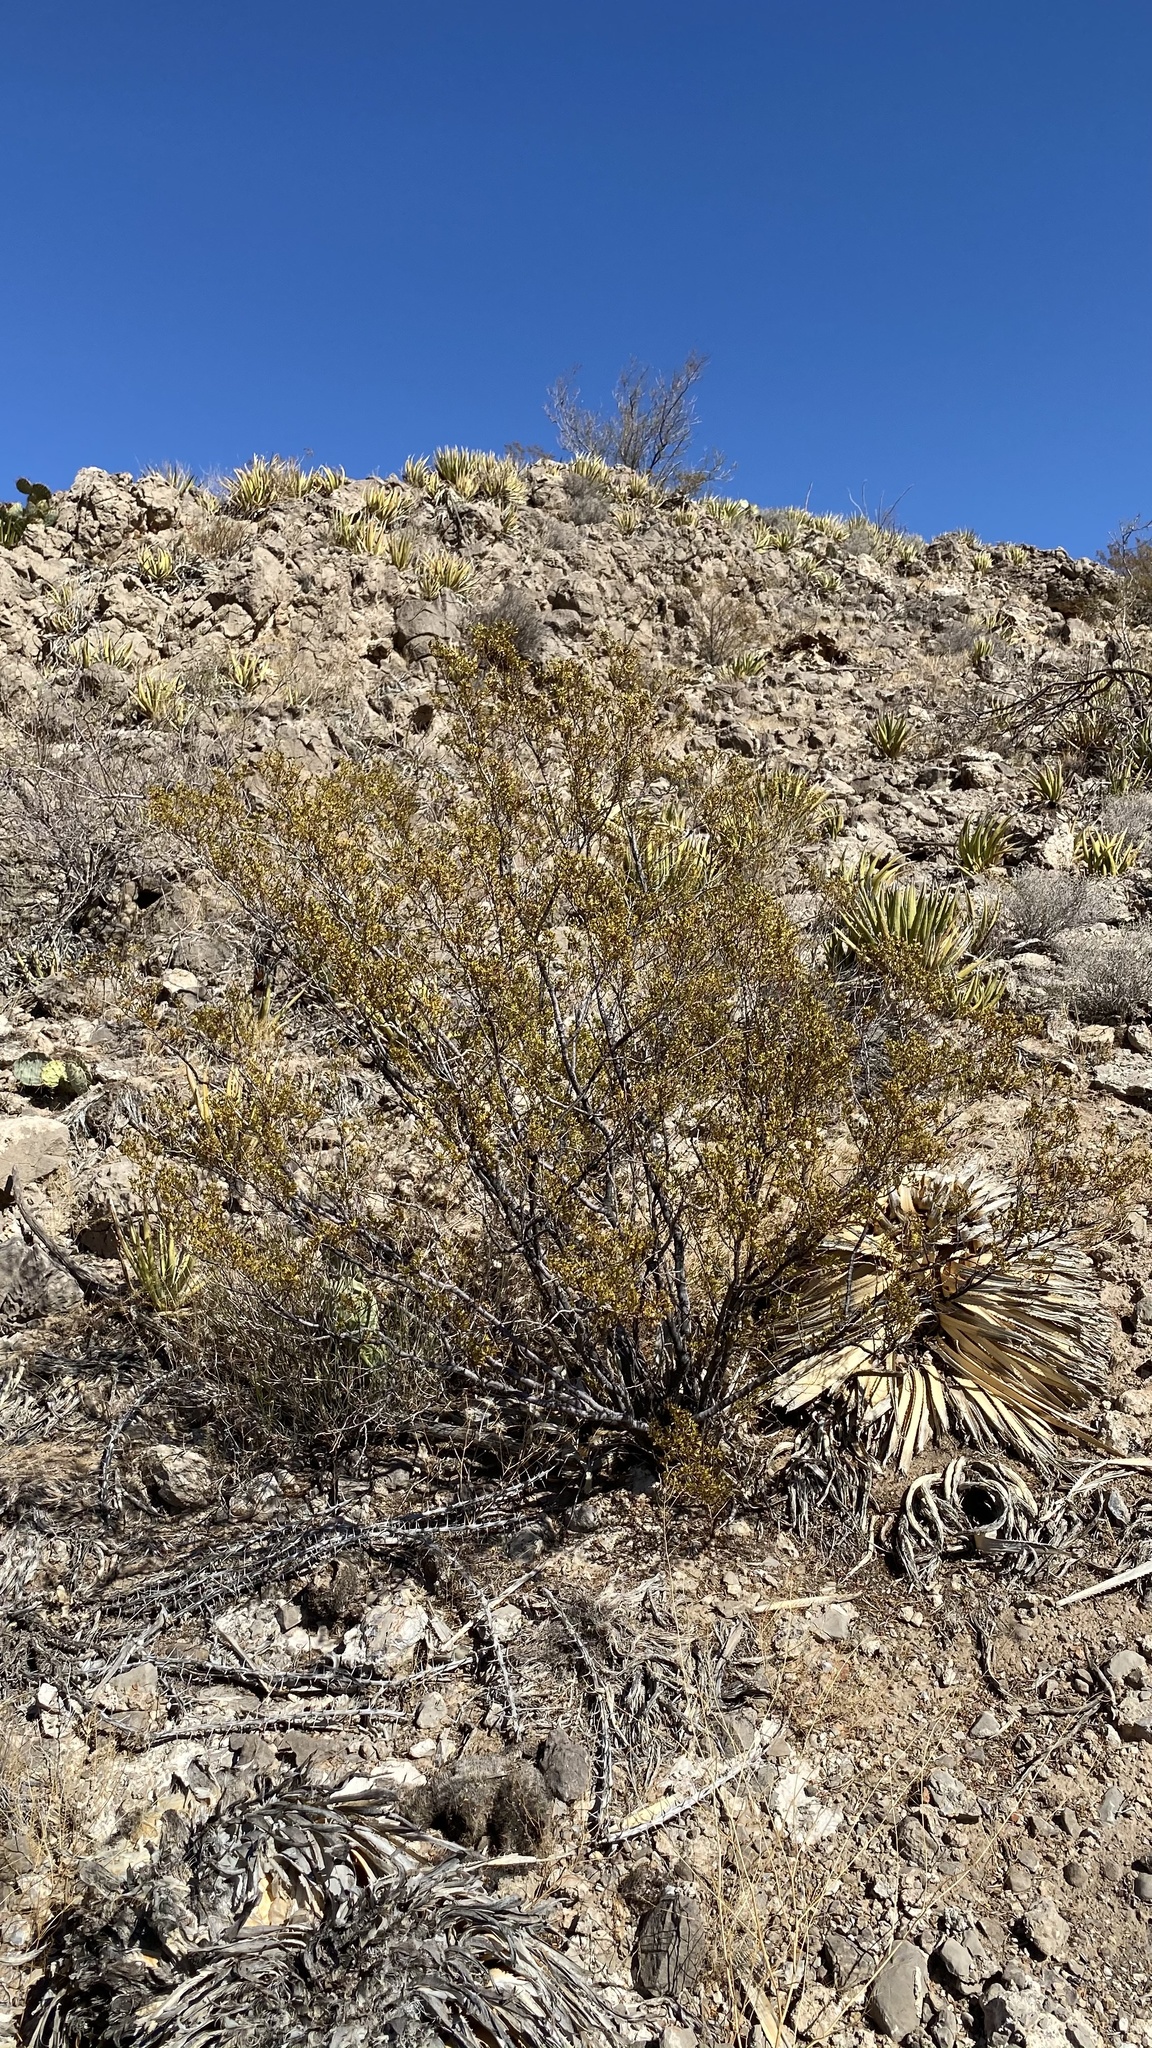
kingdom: Plantae
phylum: Tracheophyta
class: Magnoliopsida
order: Zygophyllales
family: Zygophyllaceae
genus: Larrea
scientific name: Larrea tridentata
